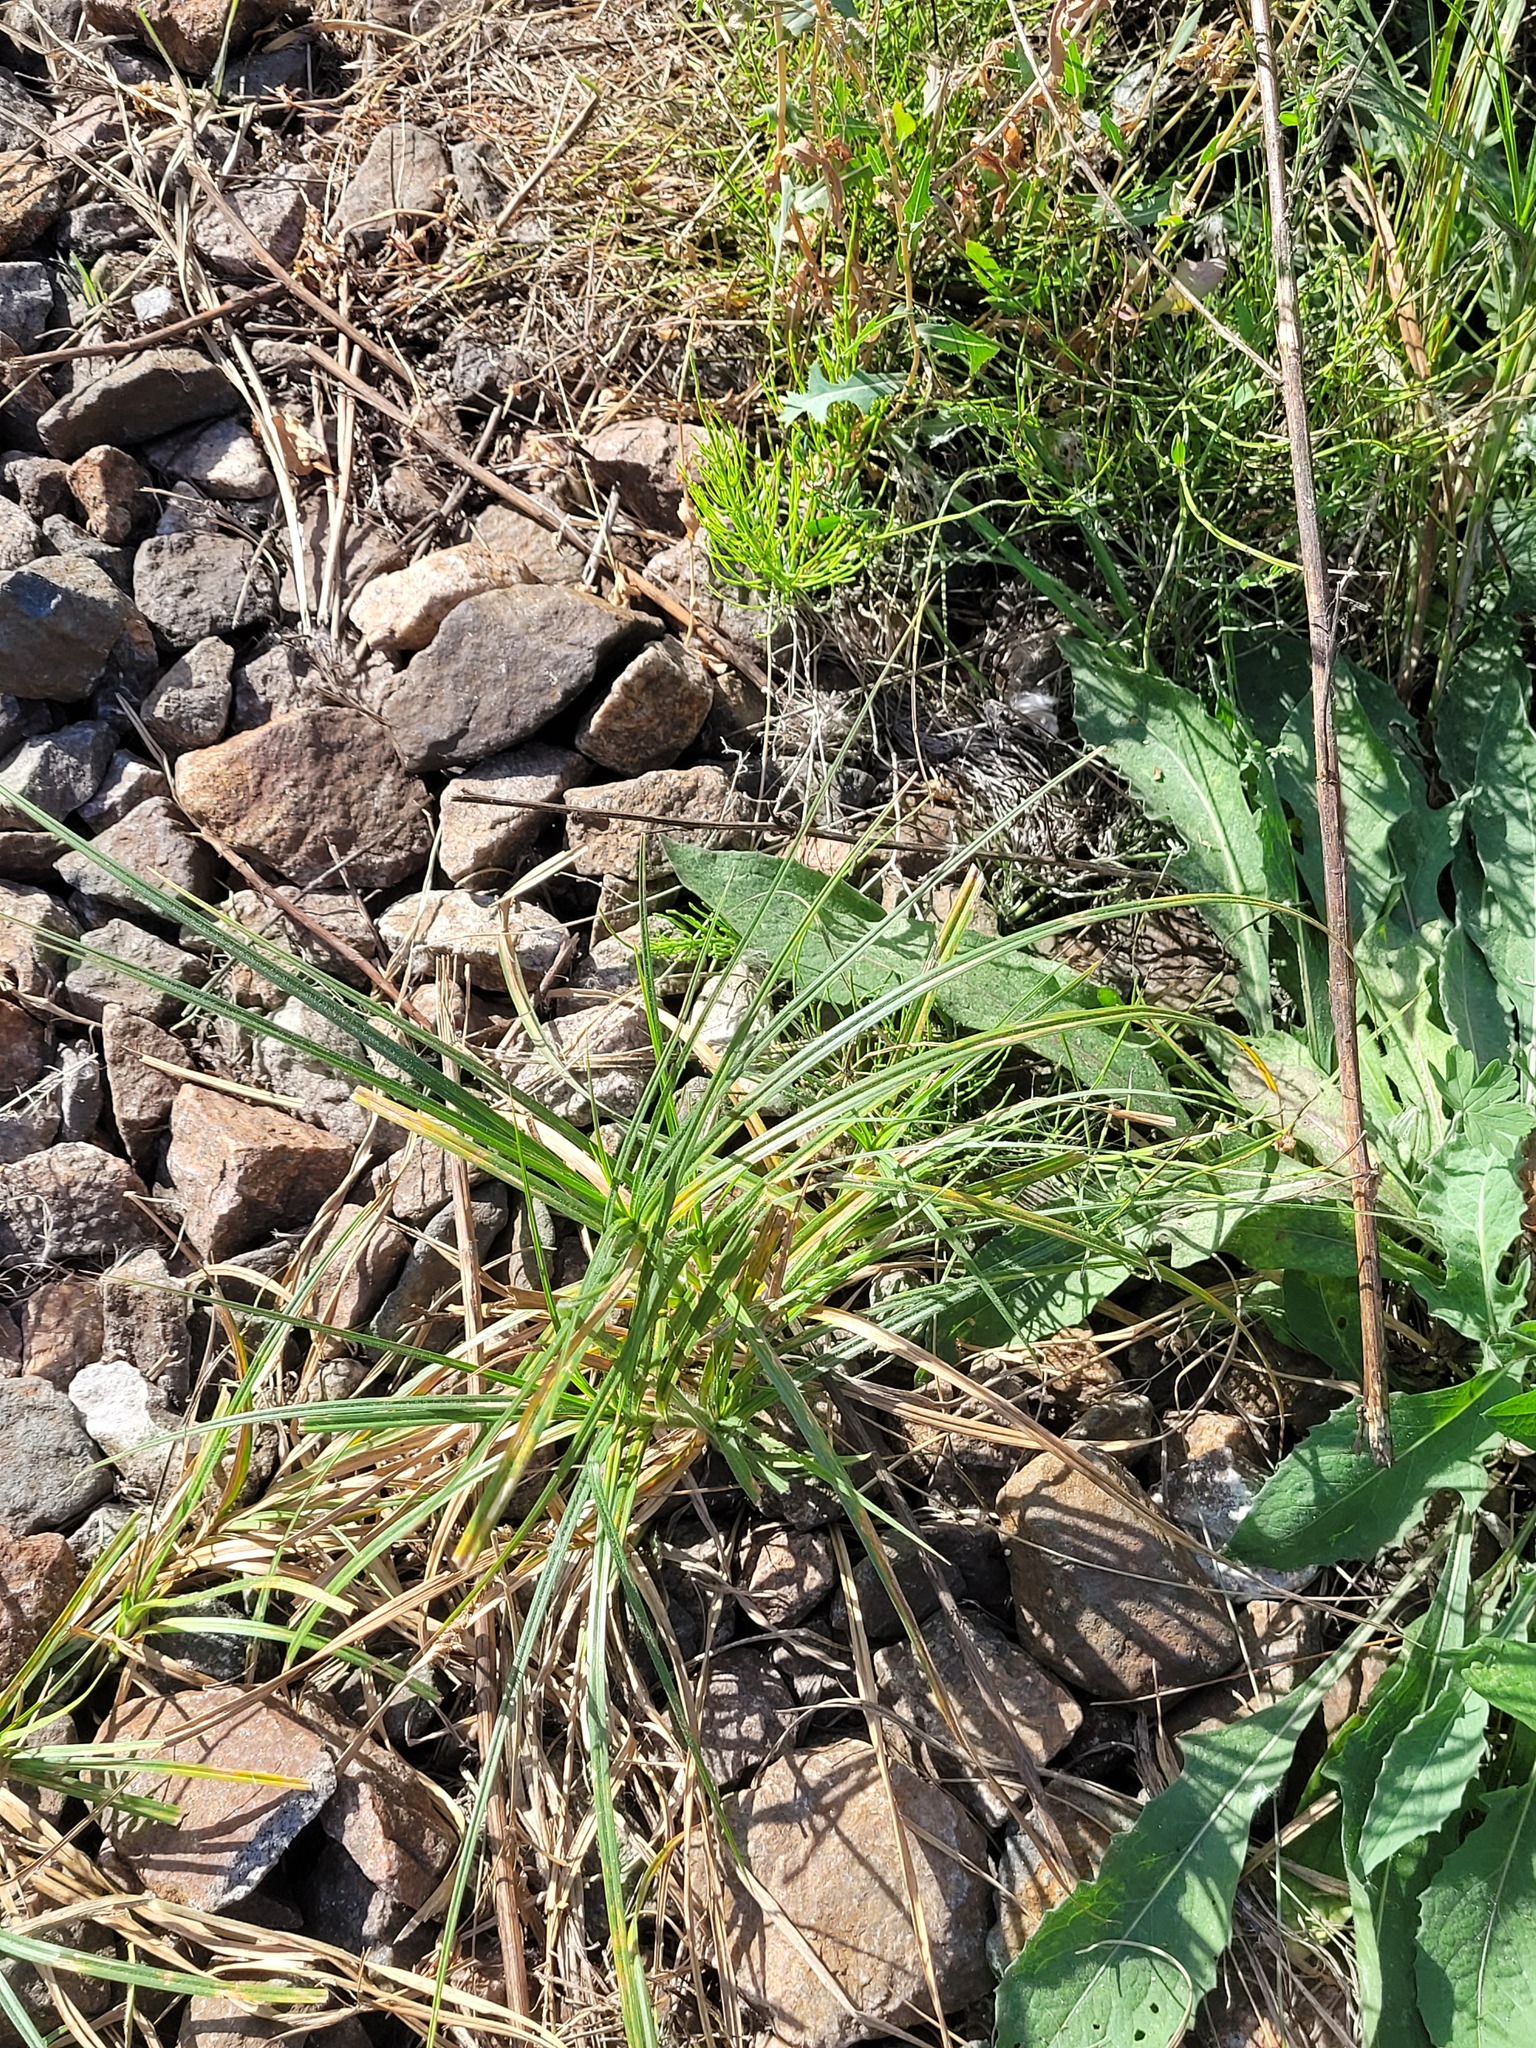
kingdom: Plantae
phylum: Tracheophyta
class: Liliopsida
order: Poales
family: Cyperaceae
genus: Carex
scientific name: Carex hirta
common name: Hairy sedge
